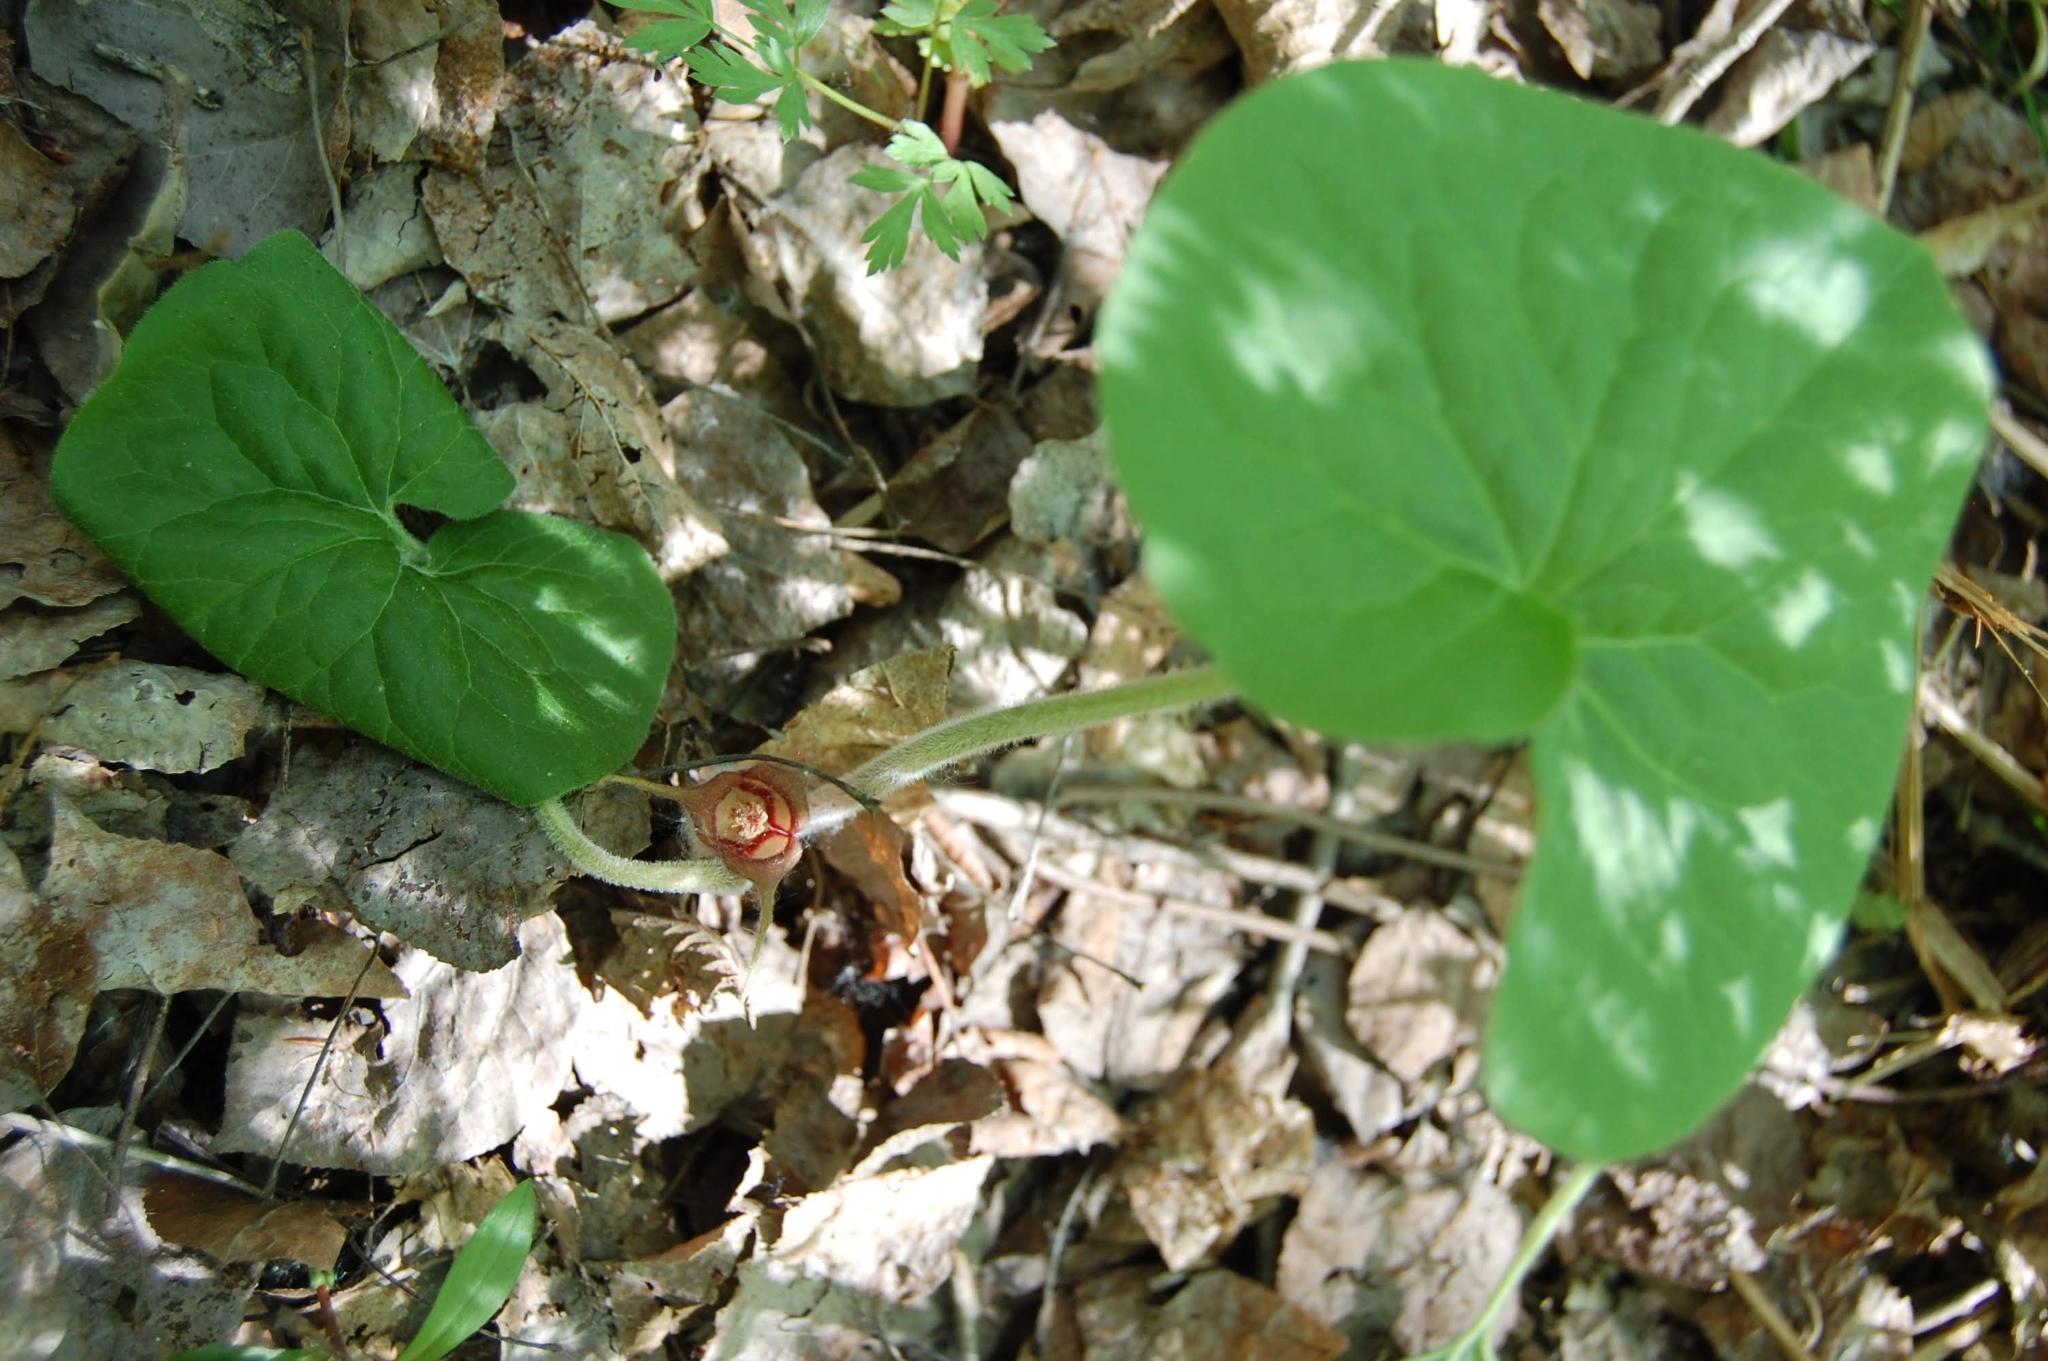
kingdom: Plantae
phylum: Tracheophyta
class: Magnoliopsida
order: Piperales
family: Aristolochiaceae
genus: Asarum
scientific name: Asarum canadense
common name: Wild ginger
